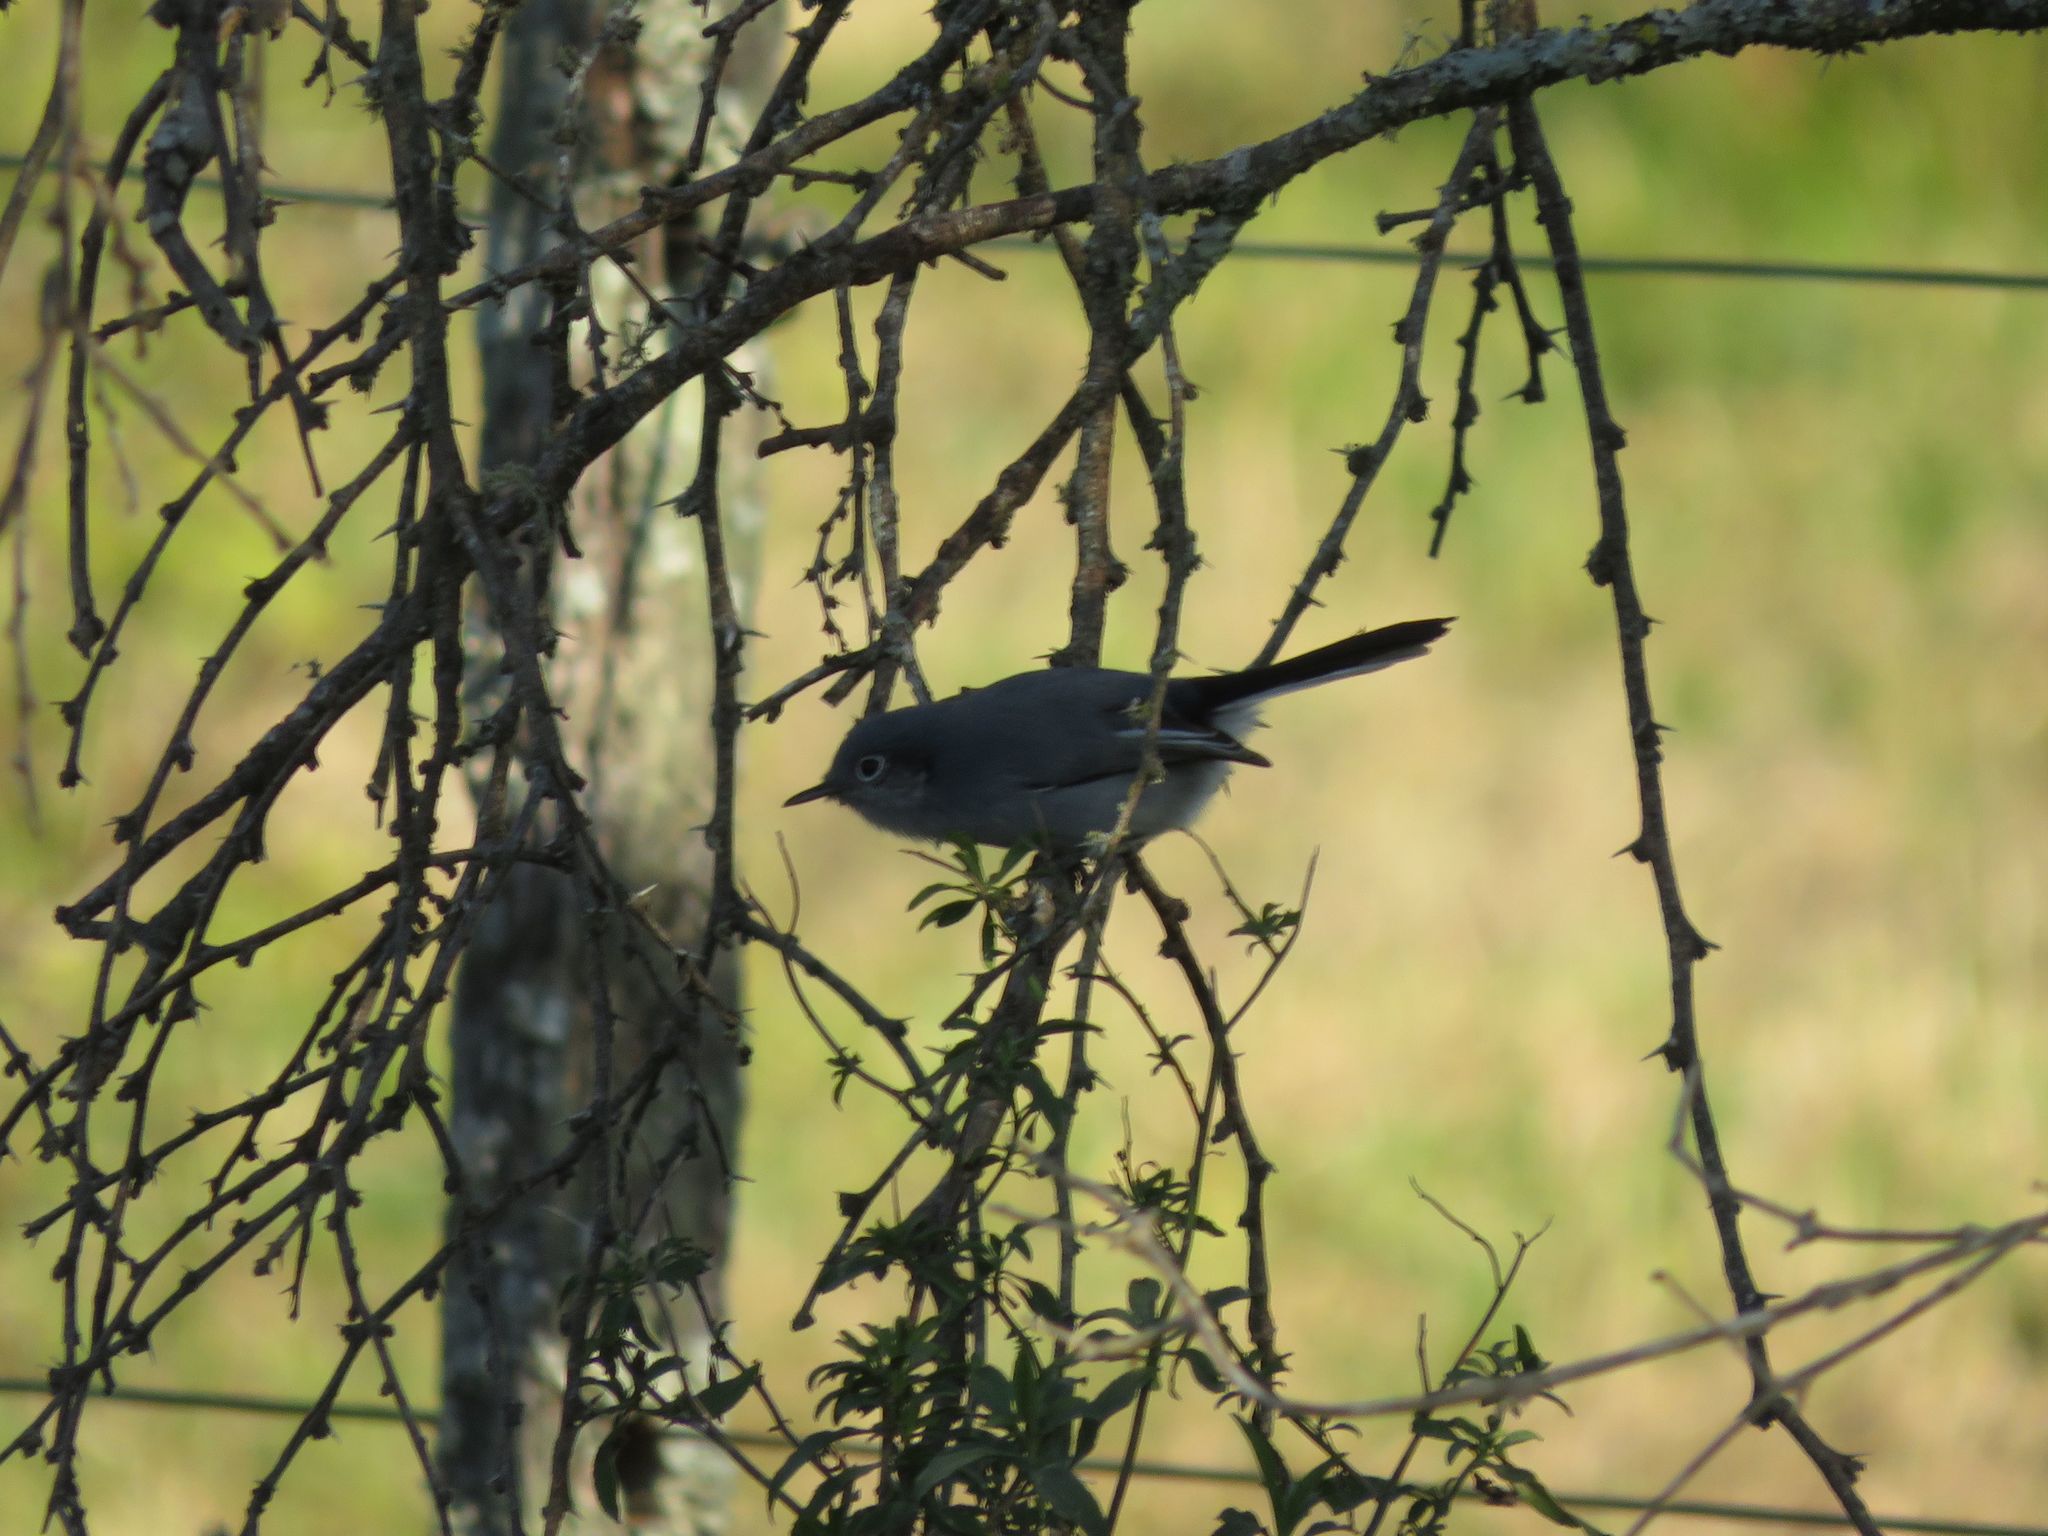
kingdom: Animalia
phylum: Chordata
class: Aves
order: Passeriformes
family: Polioptilidae
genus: Polioptila
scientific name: Polioptila dumicola
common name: Masked gnatcatcher
